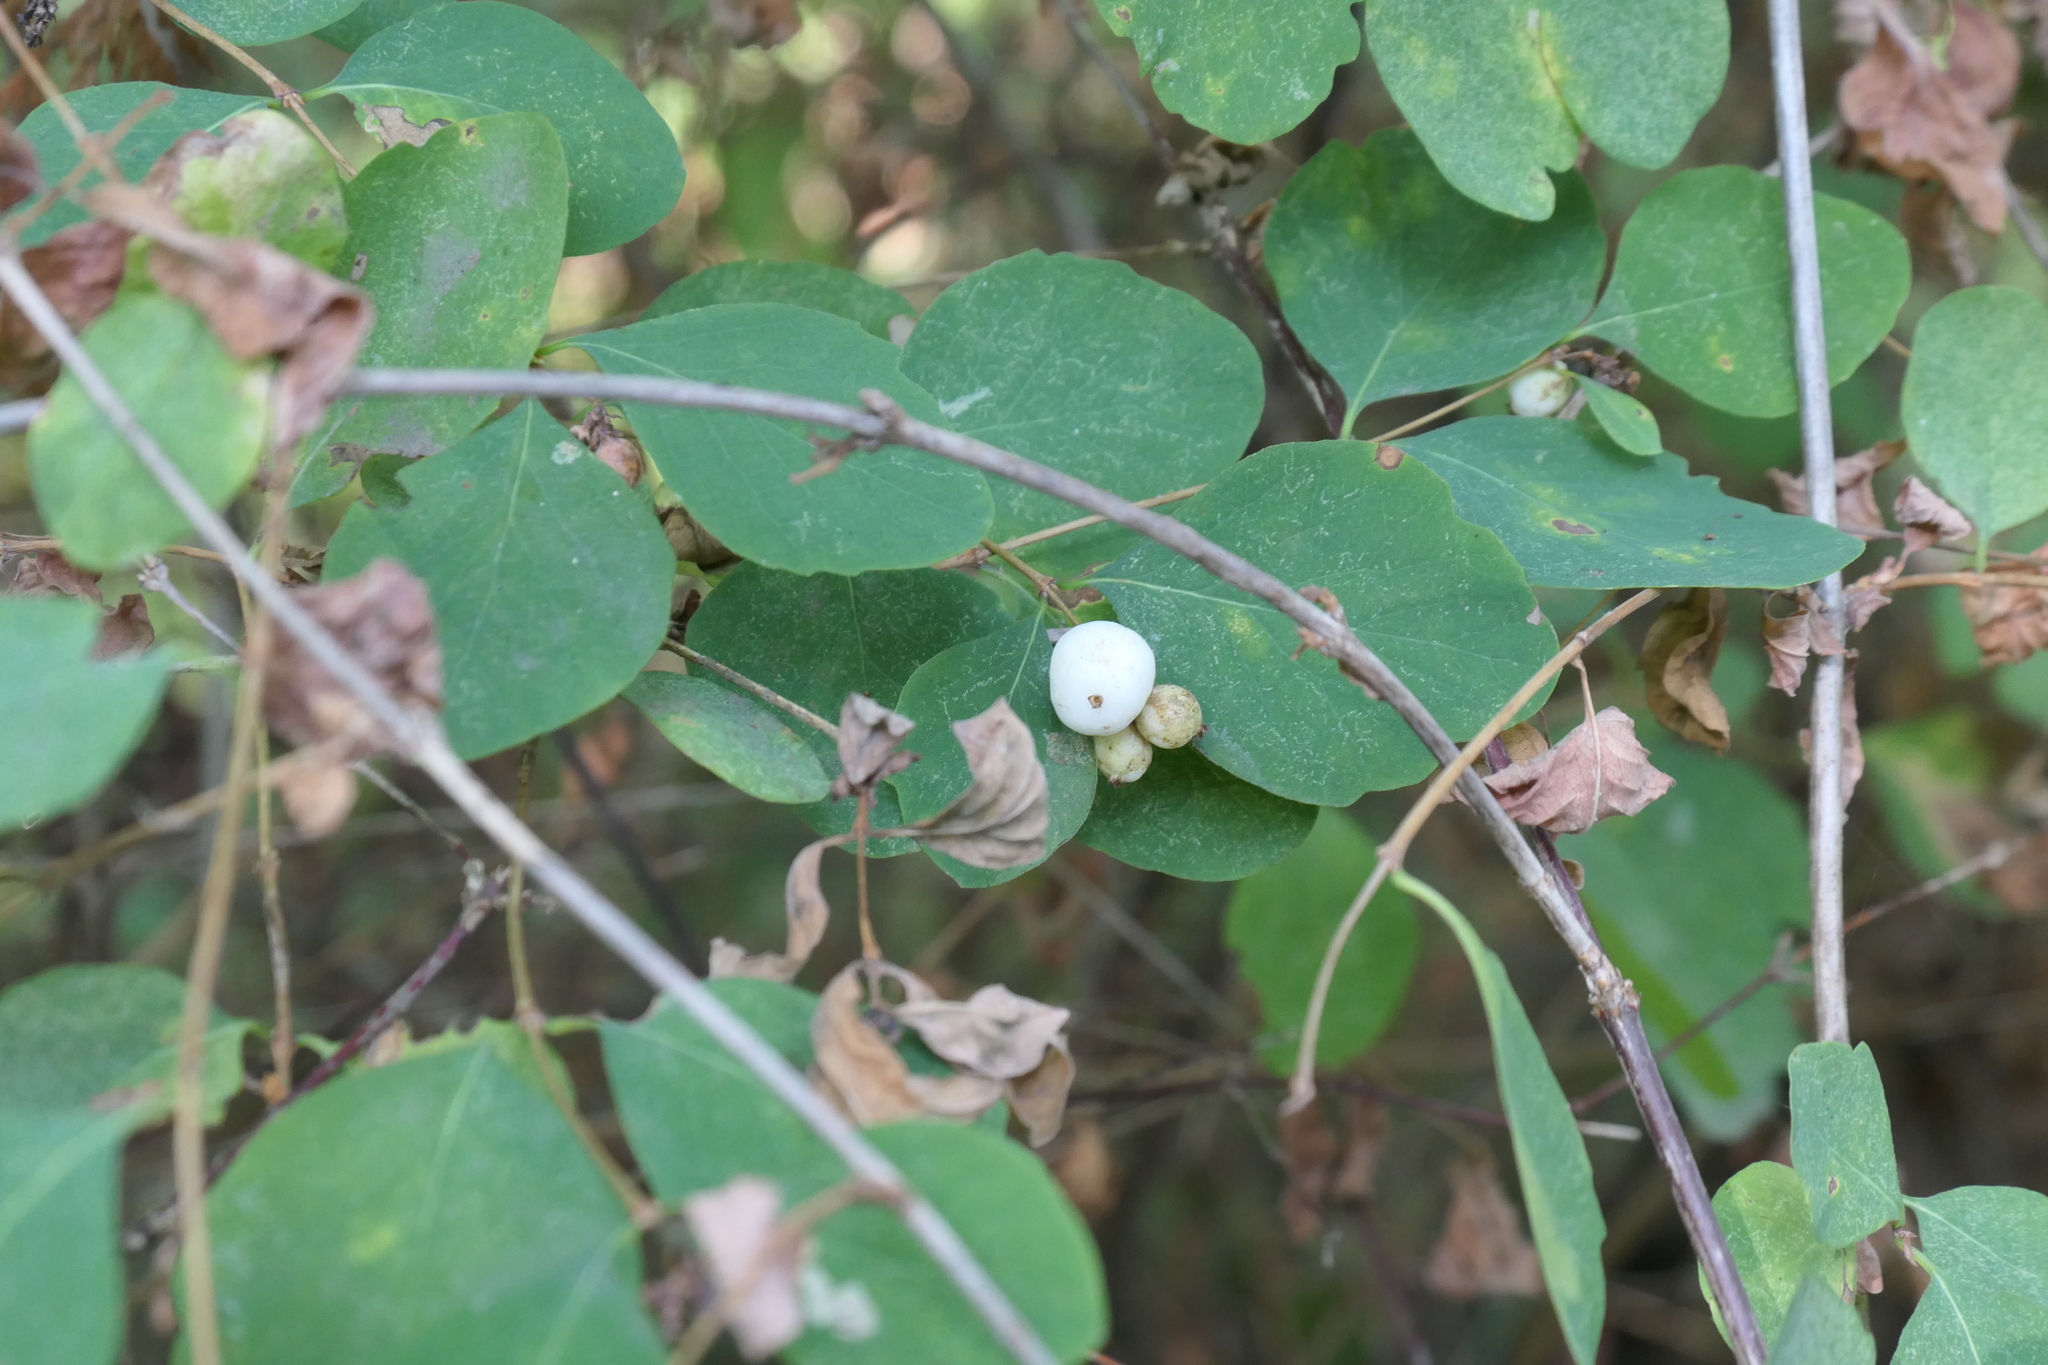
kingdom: Plantae
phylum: Tracheophyta
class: Magnoliopsida
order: Dipsacales
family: Caprifoliaceae
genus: Symphoricarpos
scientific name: Symphoricarpos albus
